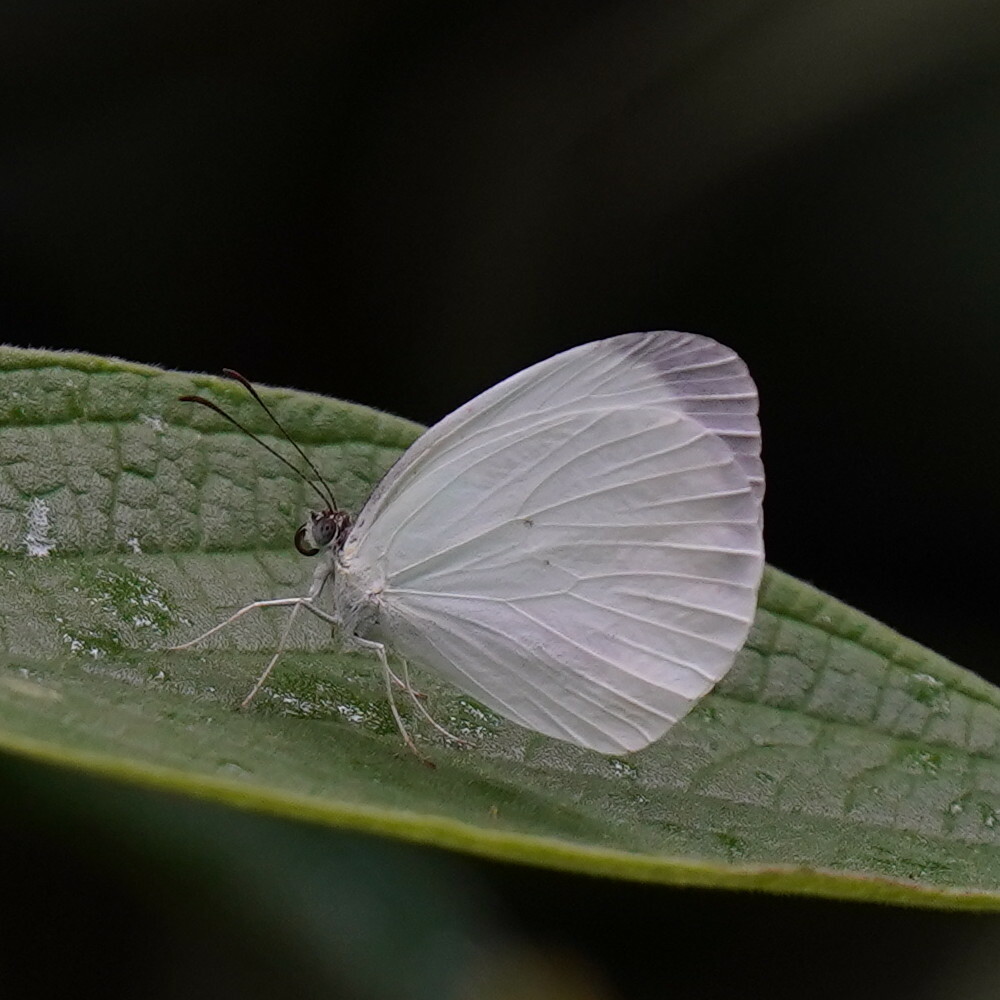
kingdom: Animalia
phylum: Arthropoda
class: Insecta
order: Lepidoptera
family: Pieridae
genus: Abaeis
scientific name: Abaeis albula
